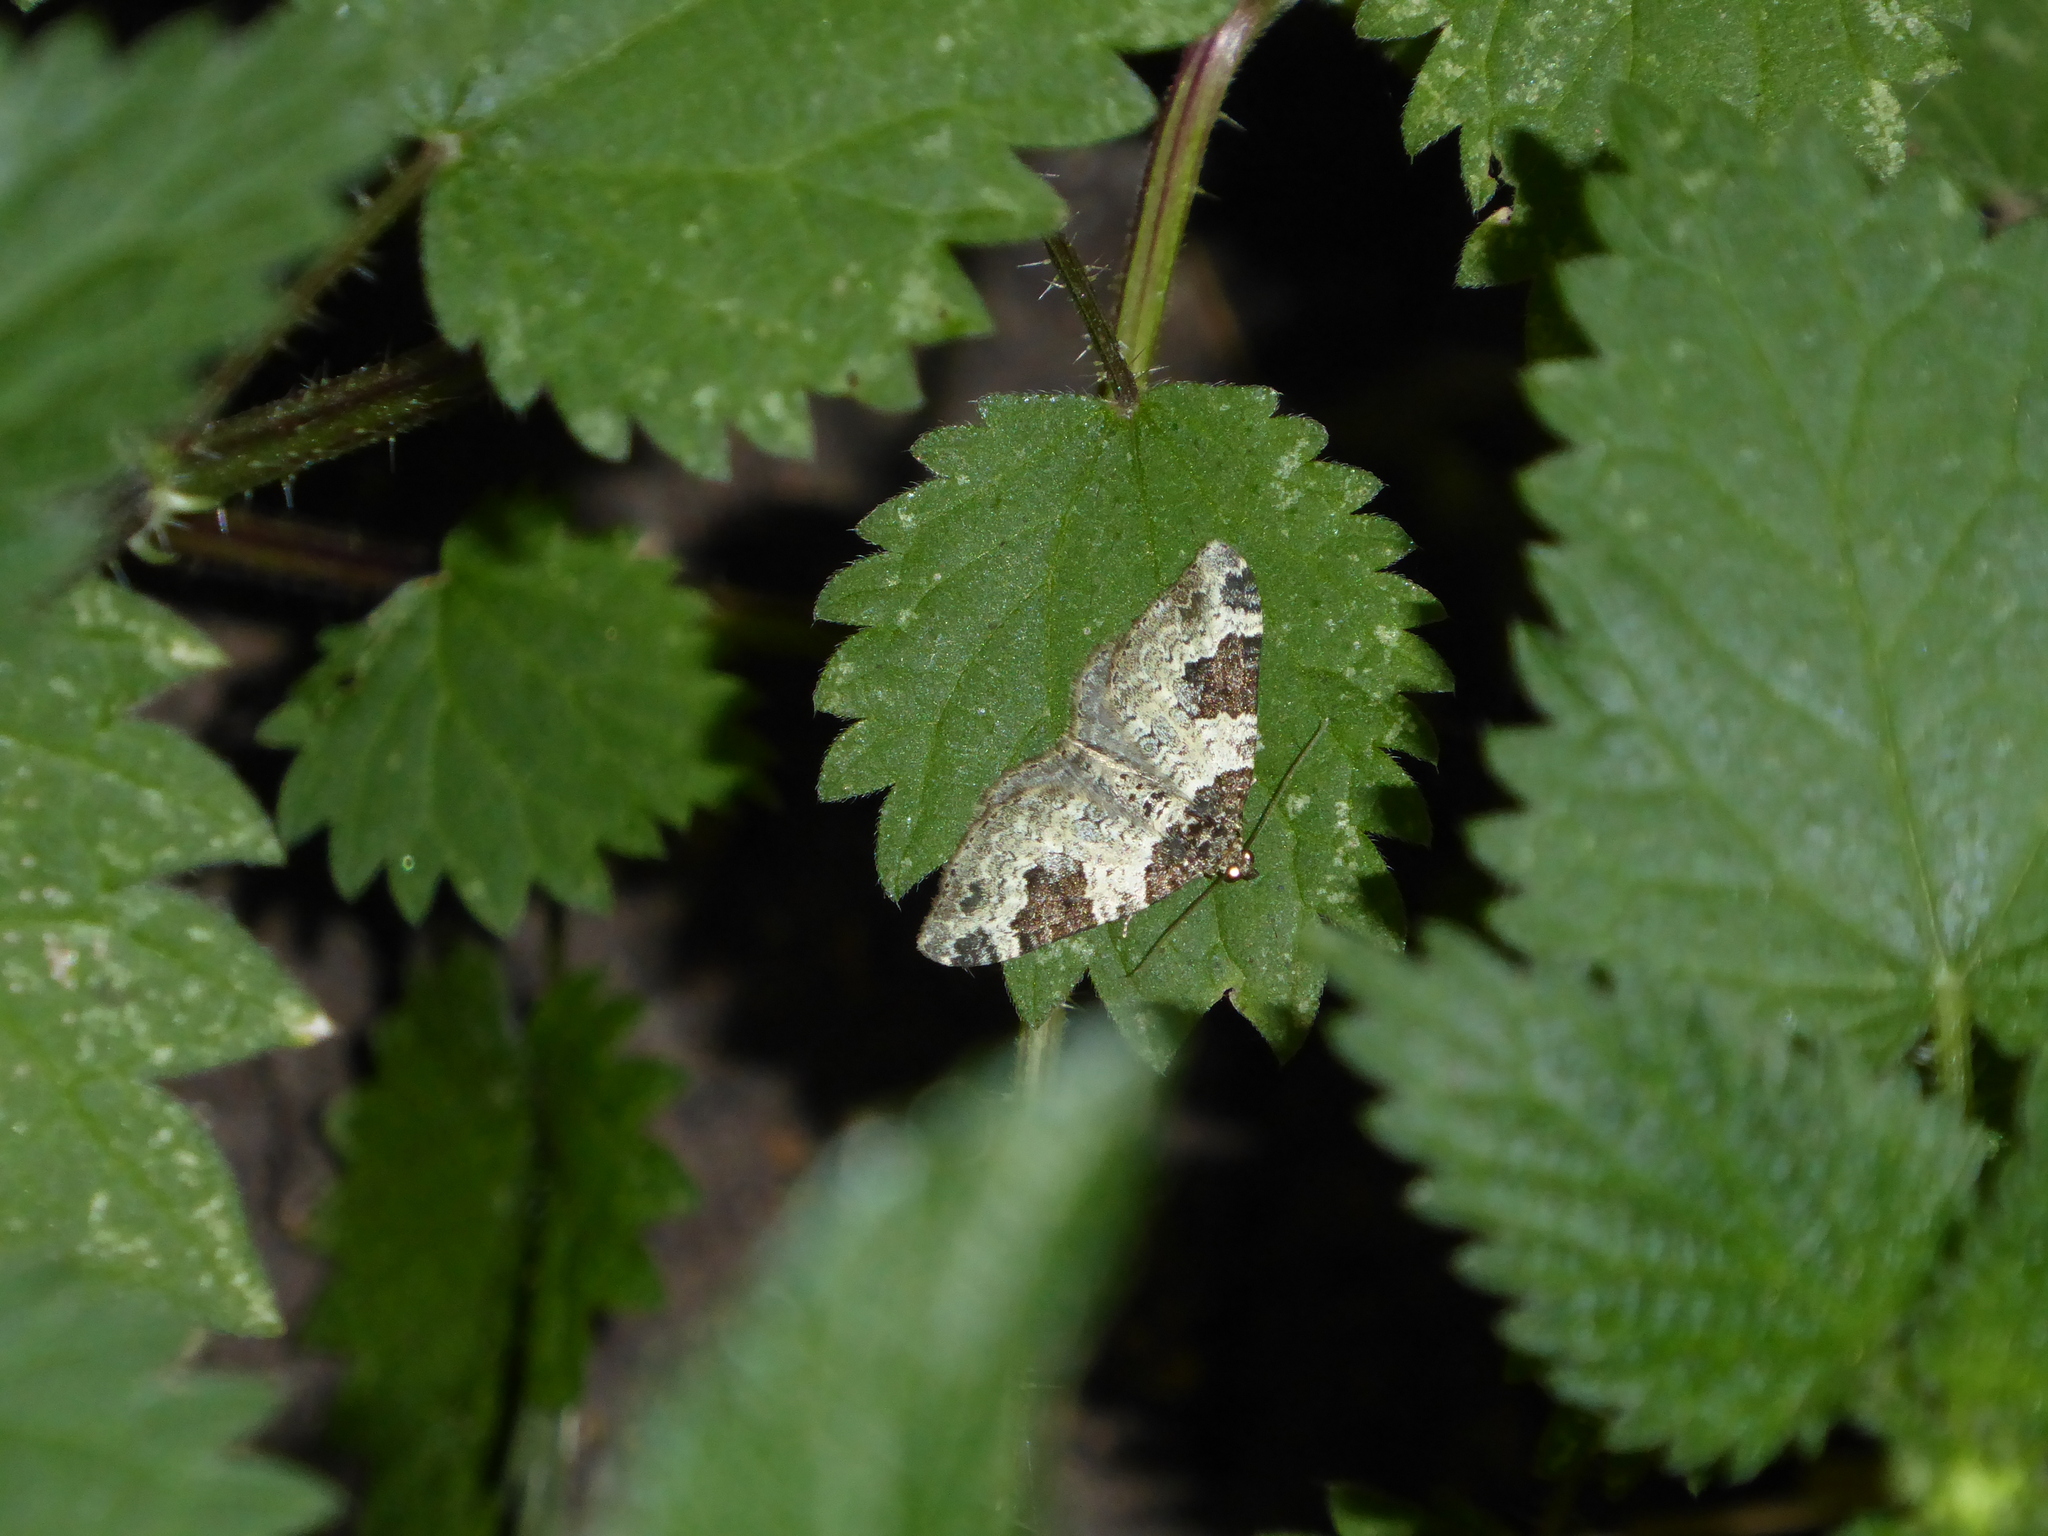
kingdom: Animalia
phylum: Arthropoda
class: Insecta
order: Lepidoptera
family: Geometridae
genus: Xanthorhoe
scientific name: Xanthorhoe fluctuata
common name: Garden carpet
